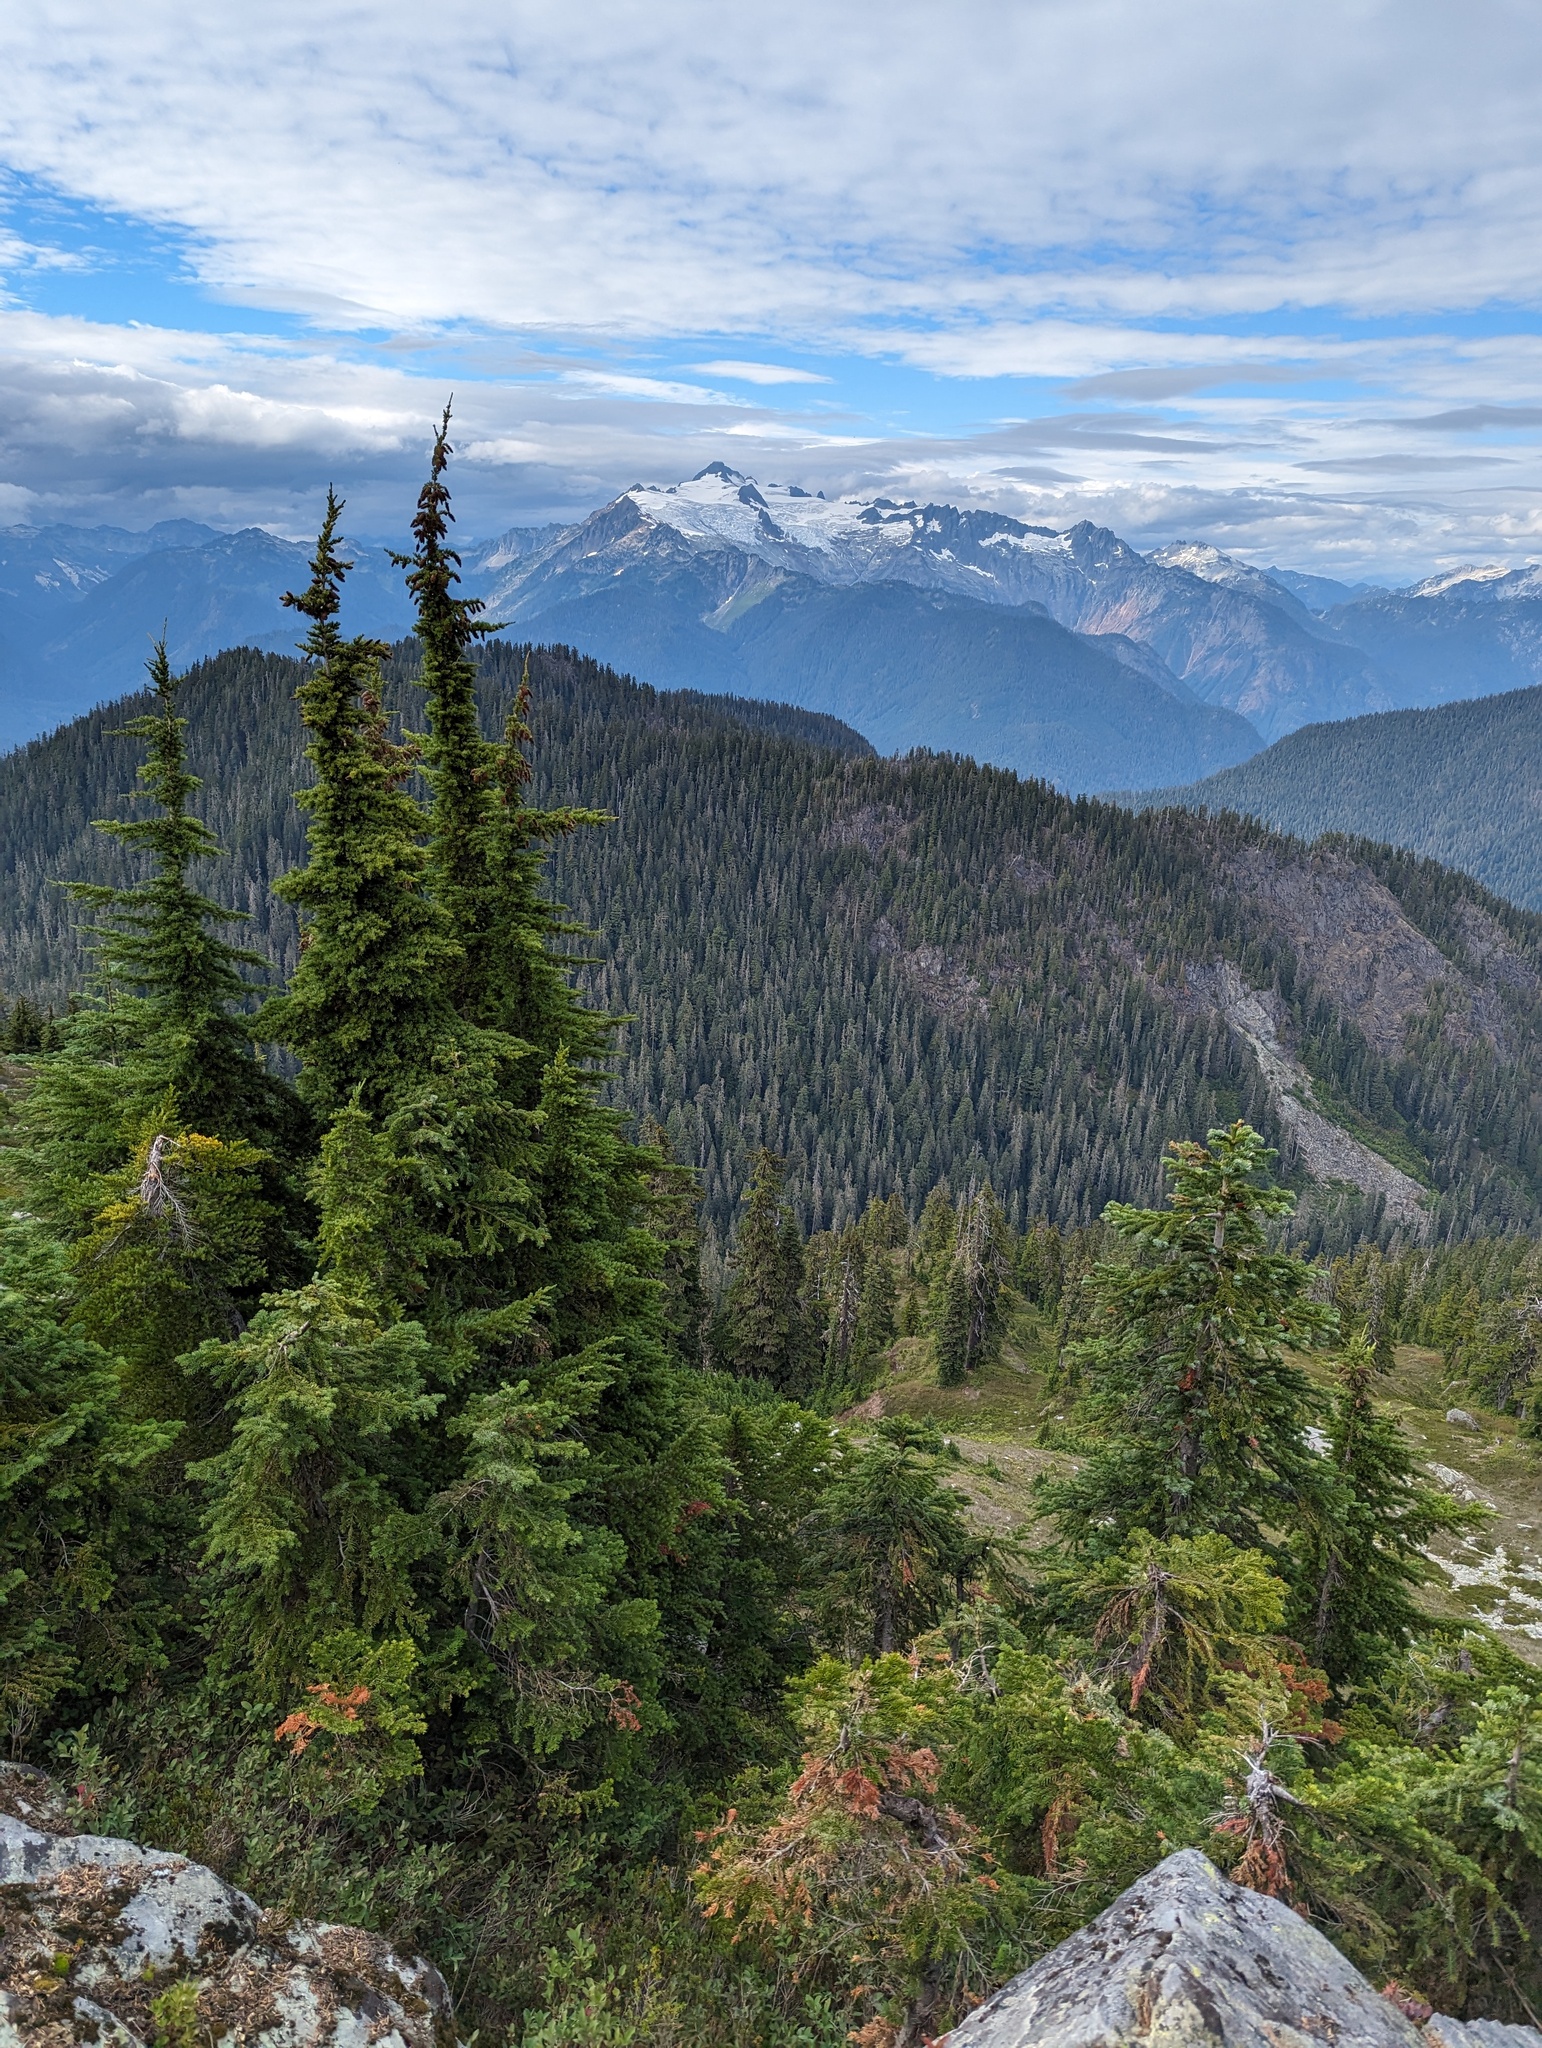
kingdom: Plantae
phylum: Tracheophyta
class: Pinopsida
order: Pinales
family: Pinaceae
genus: Tsuga
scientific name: Tsuga mertensiana
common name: Mountain hemlock
